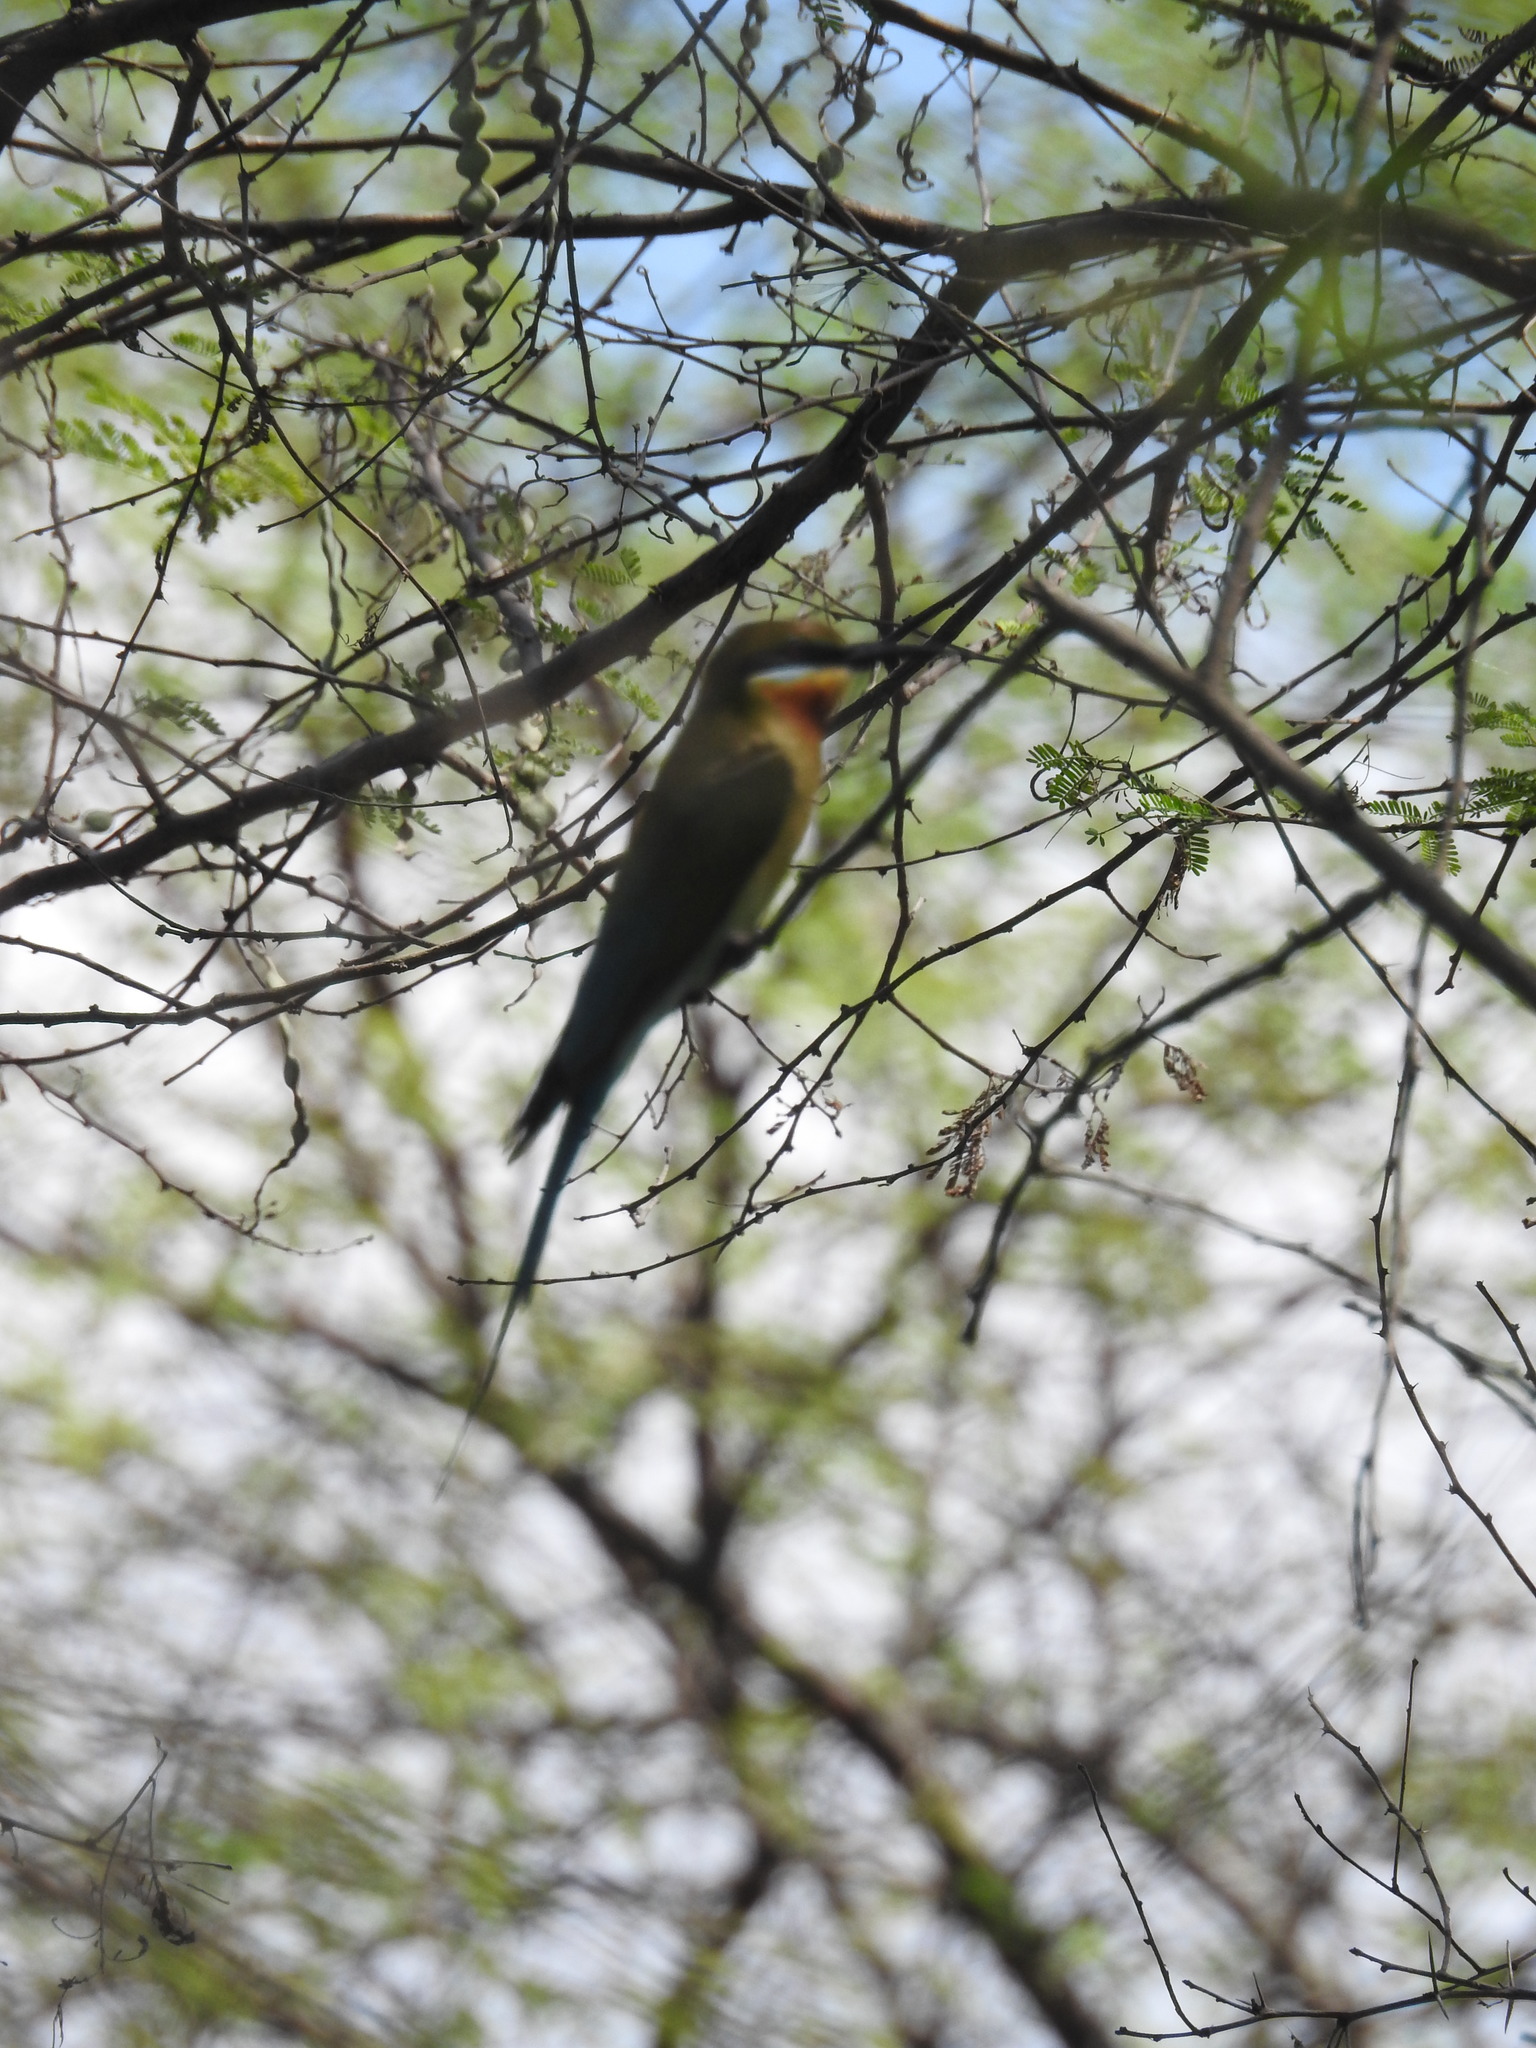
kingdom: Animalia
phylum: Chordata
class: Aves
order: Coraciiformes
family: Meropidae
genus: Merops
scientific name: Merops philippinus
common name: Blue-tailed bee-eater
